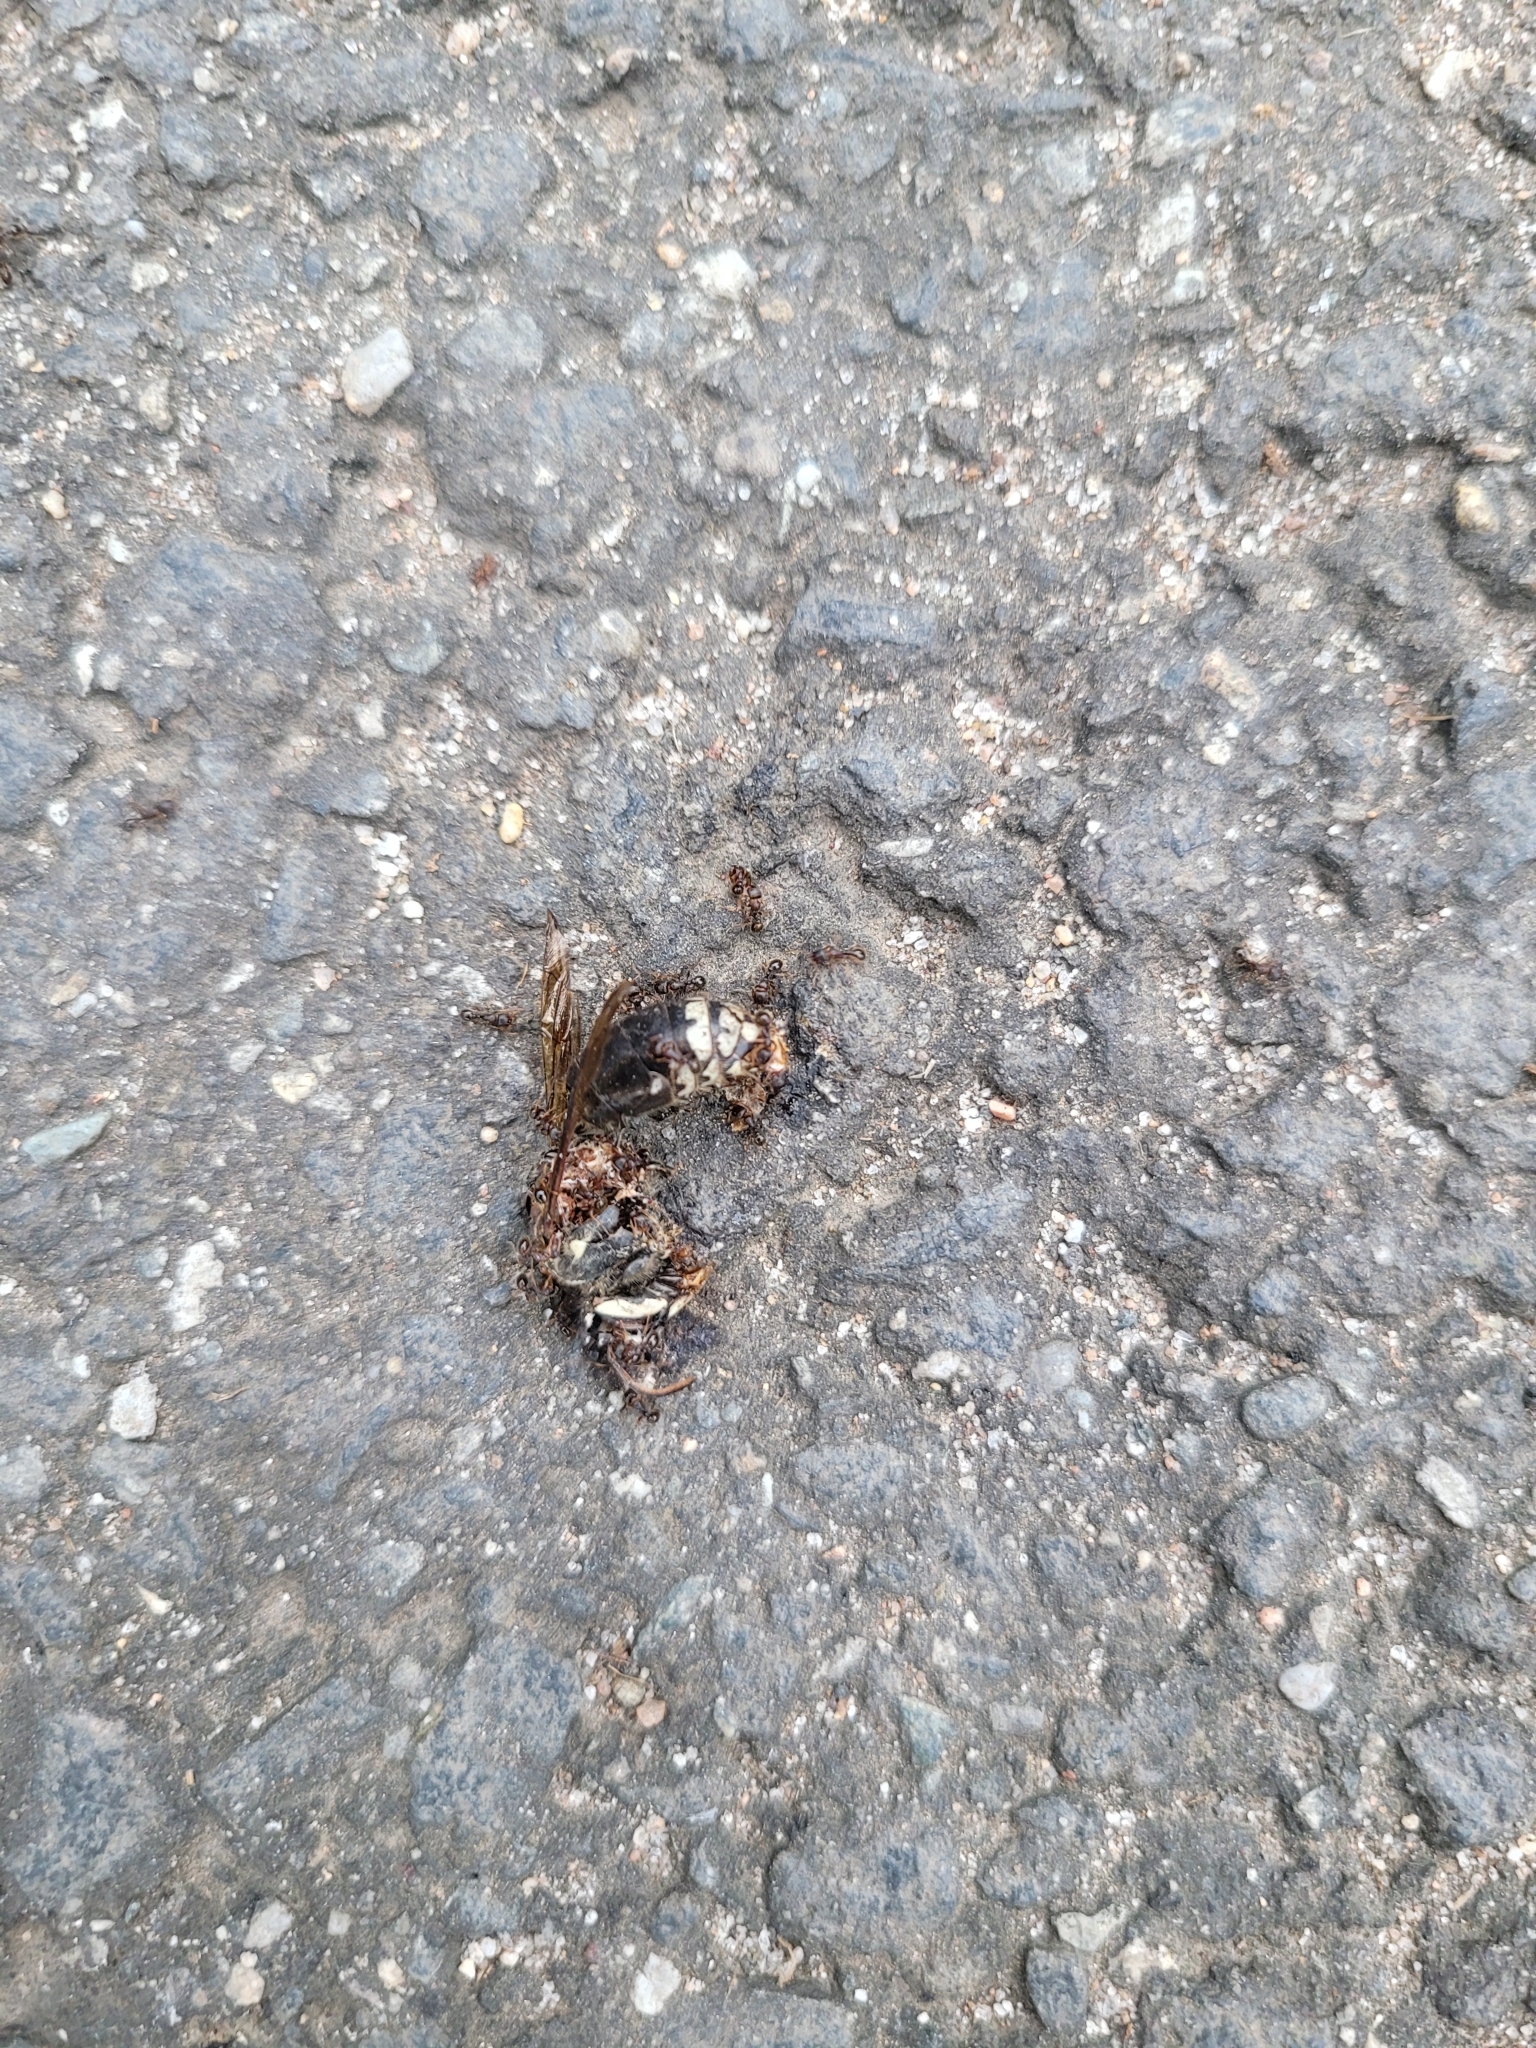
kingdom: Animalia
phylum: Arthropoda
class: Insecta
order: Hymenoptera
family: Vespidae
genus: Dolichovespula
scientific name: Dolichovespula maculata
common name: Bald-faced hornet
